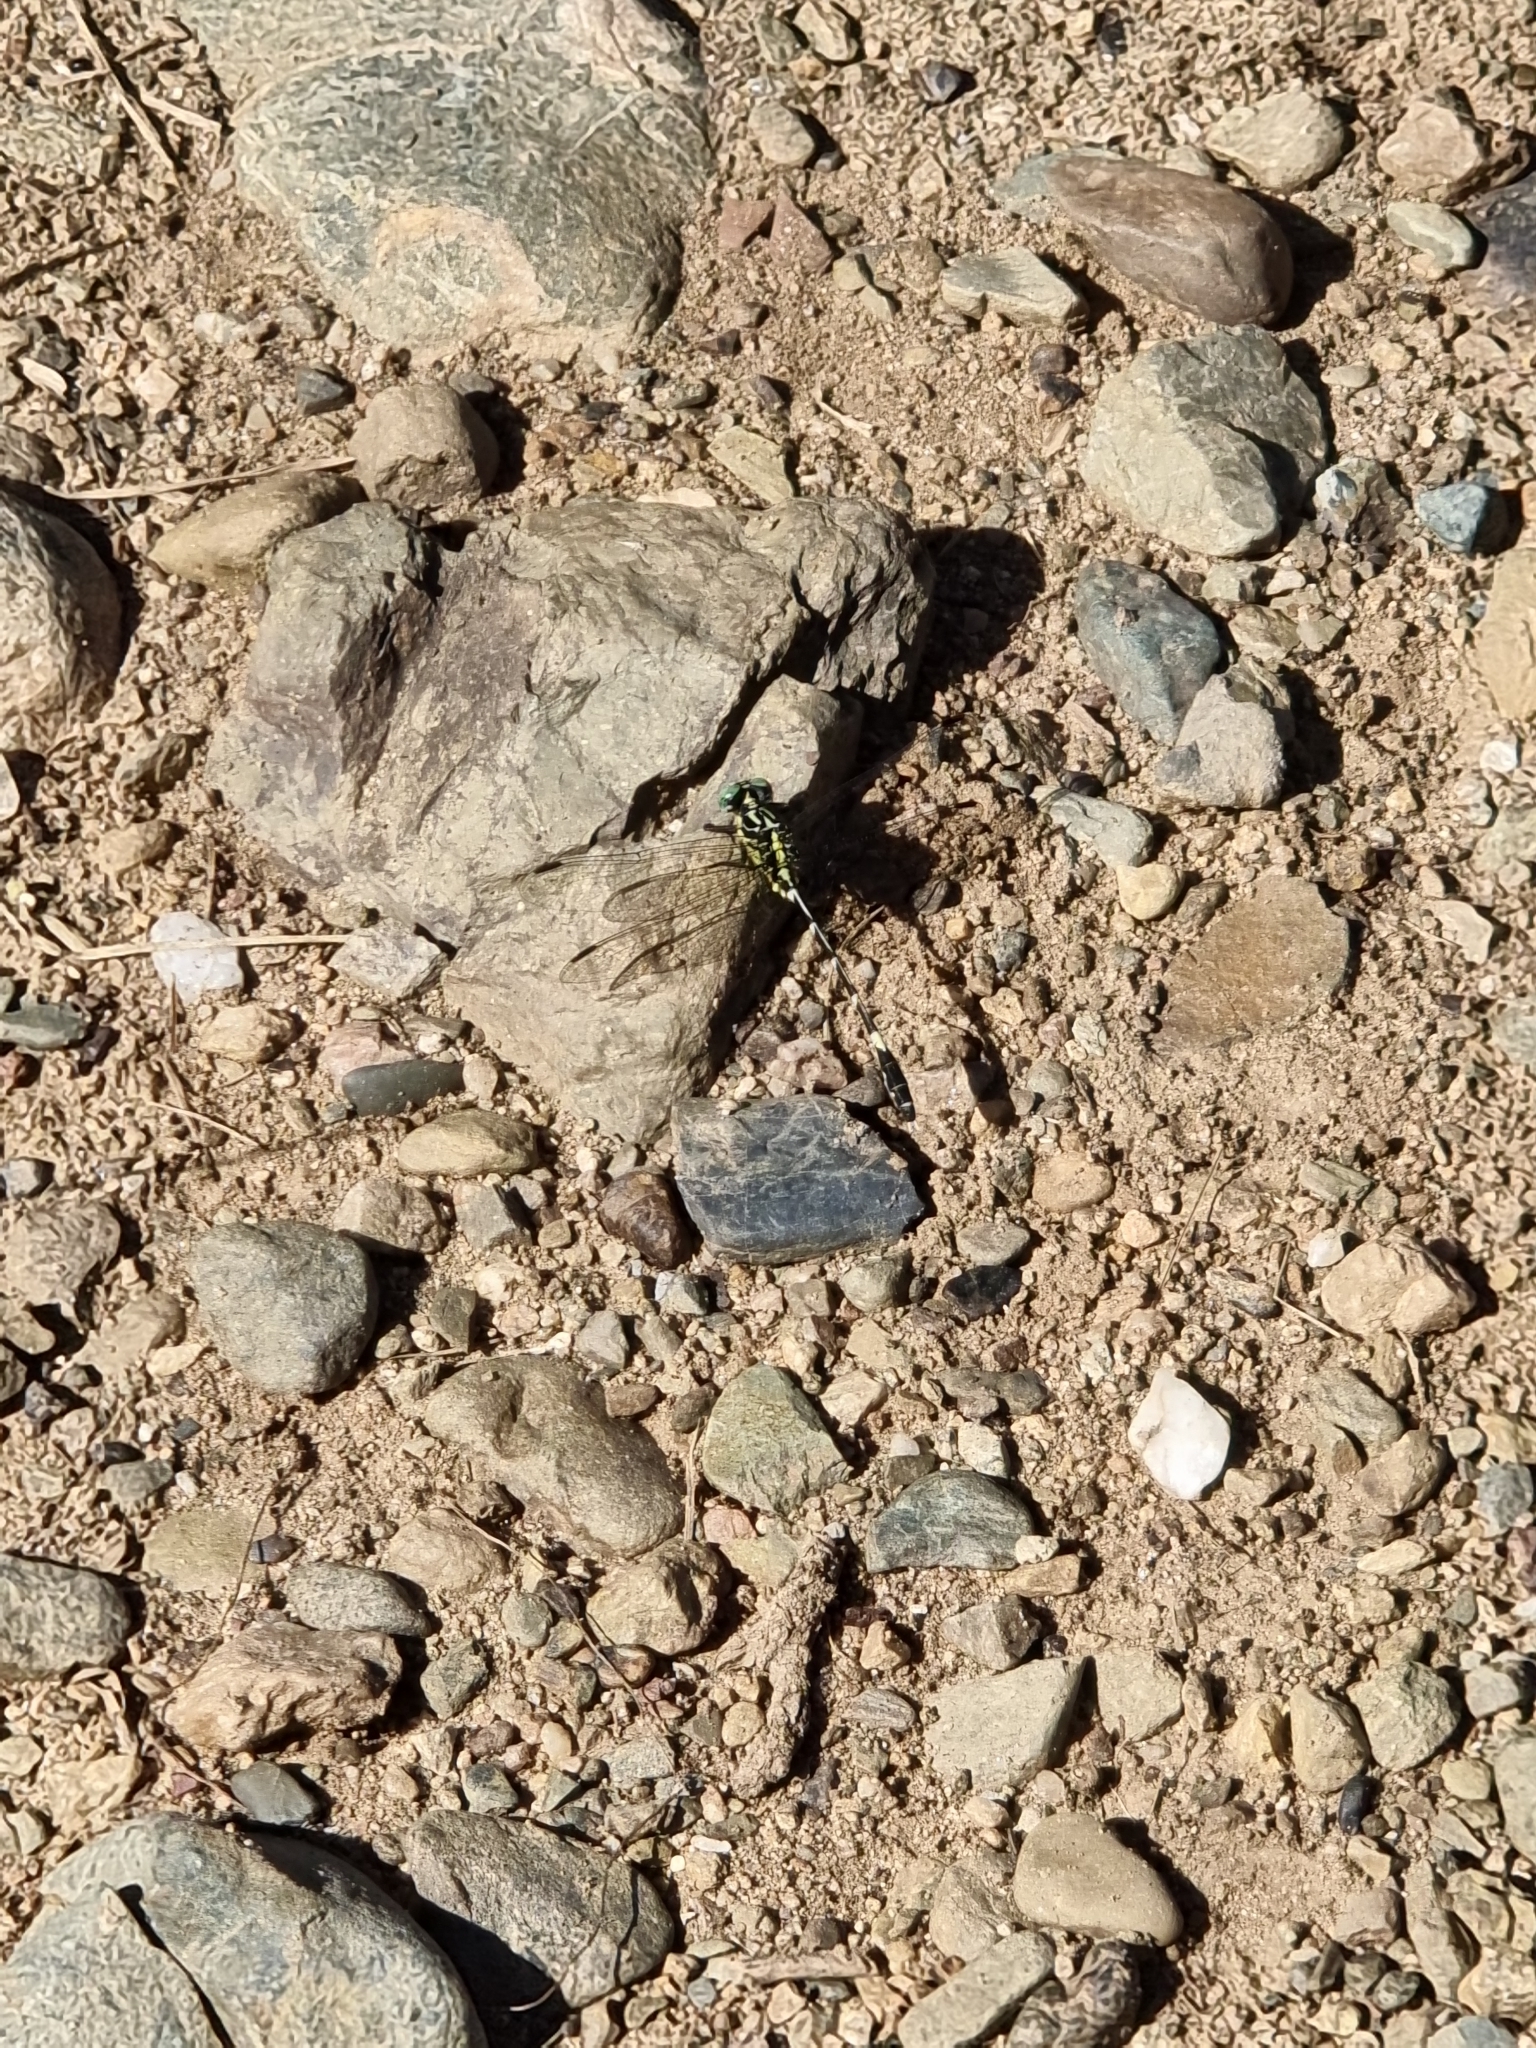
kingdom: Animalia
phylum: Arthropoda
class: Insecta
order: Odonata
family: Gomphidae
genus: Austrogomphus
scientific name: Austrogomphus amphiclitus
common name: Pale hunter
